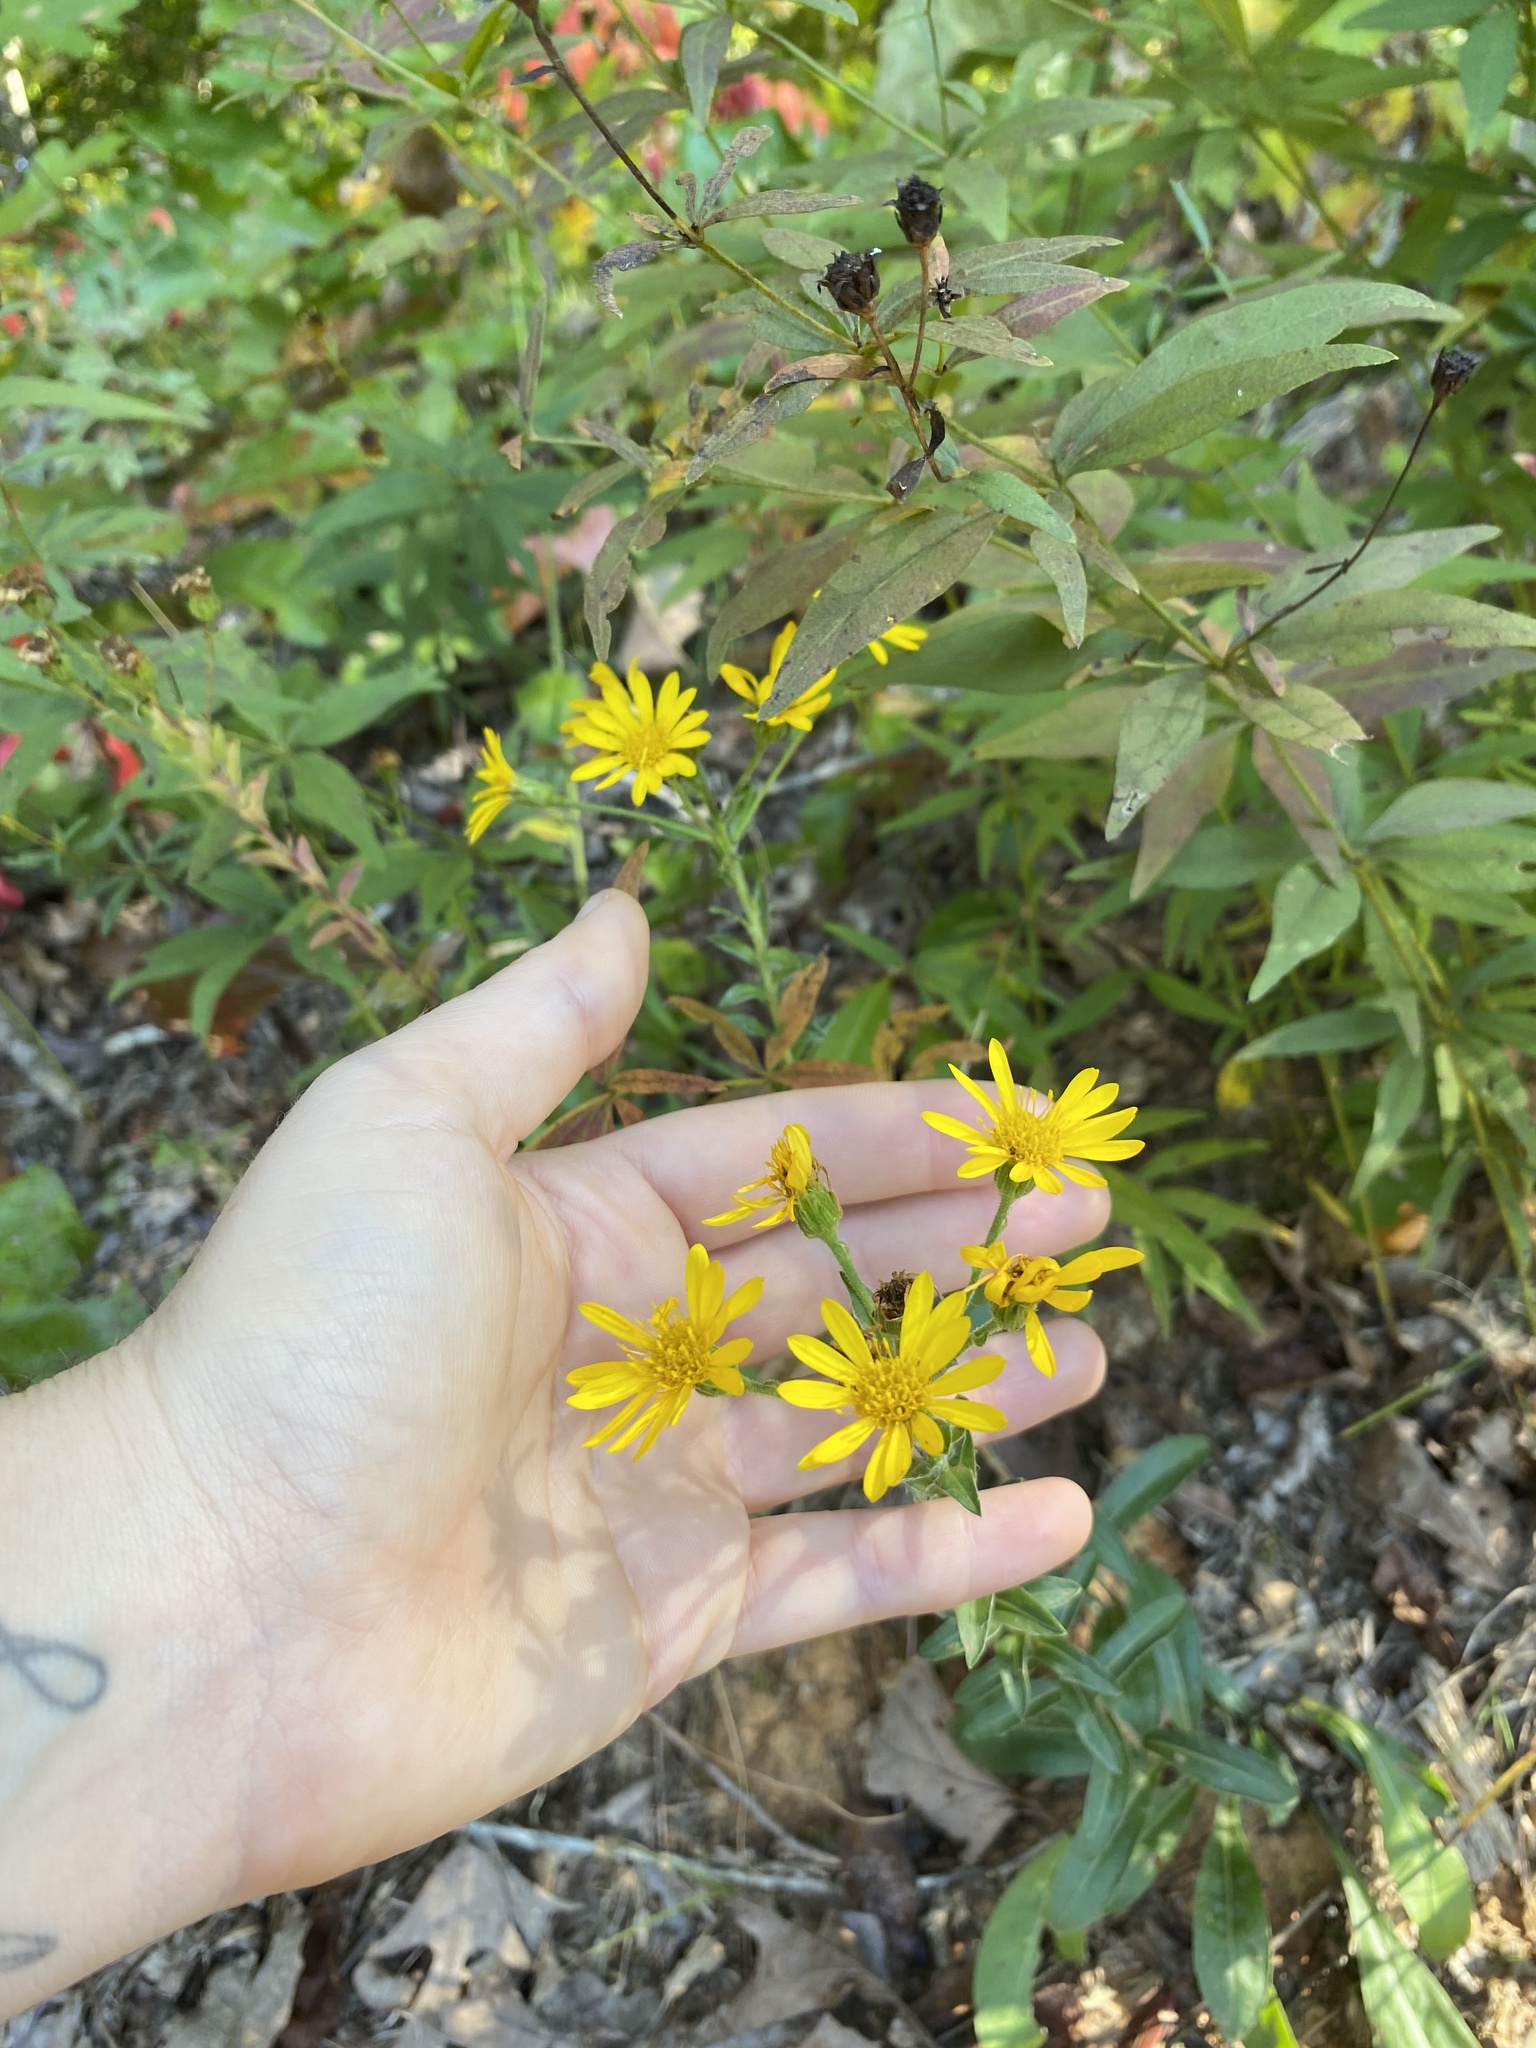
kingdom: Plantae
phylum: Tracheophyta
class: Magnoliopsida
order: Asterales
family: Asteraceae
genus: Chrysopsis
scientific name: Chrysopsis mariana
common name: Maryland golden-aster
